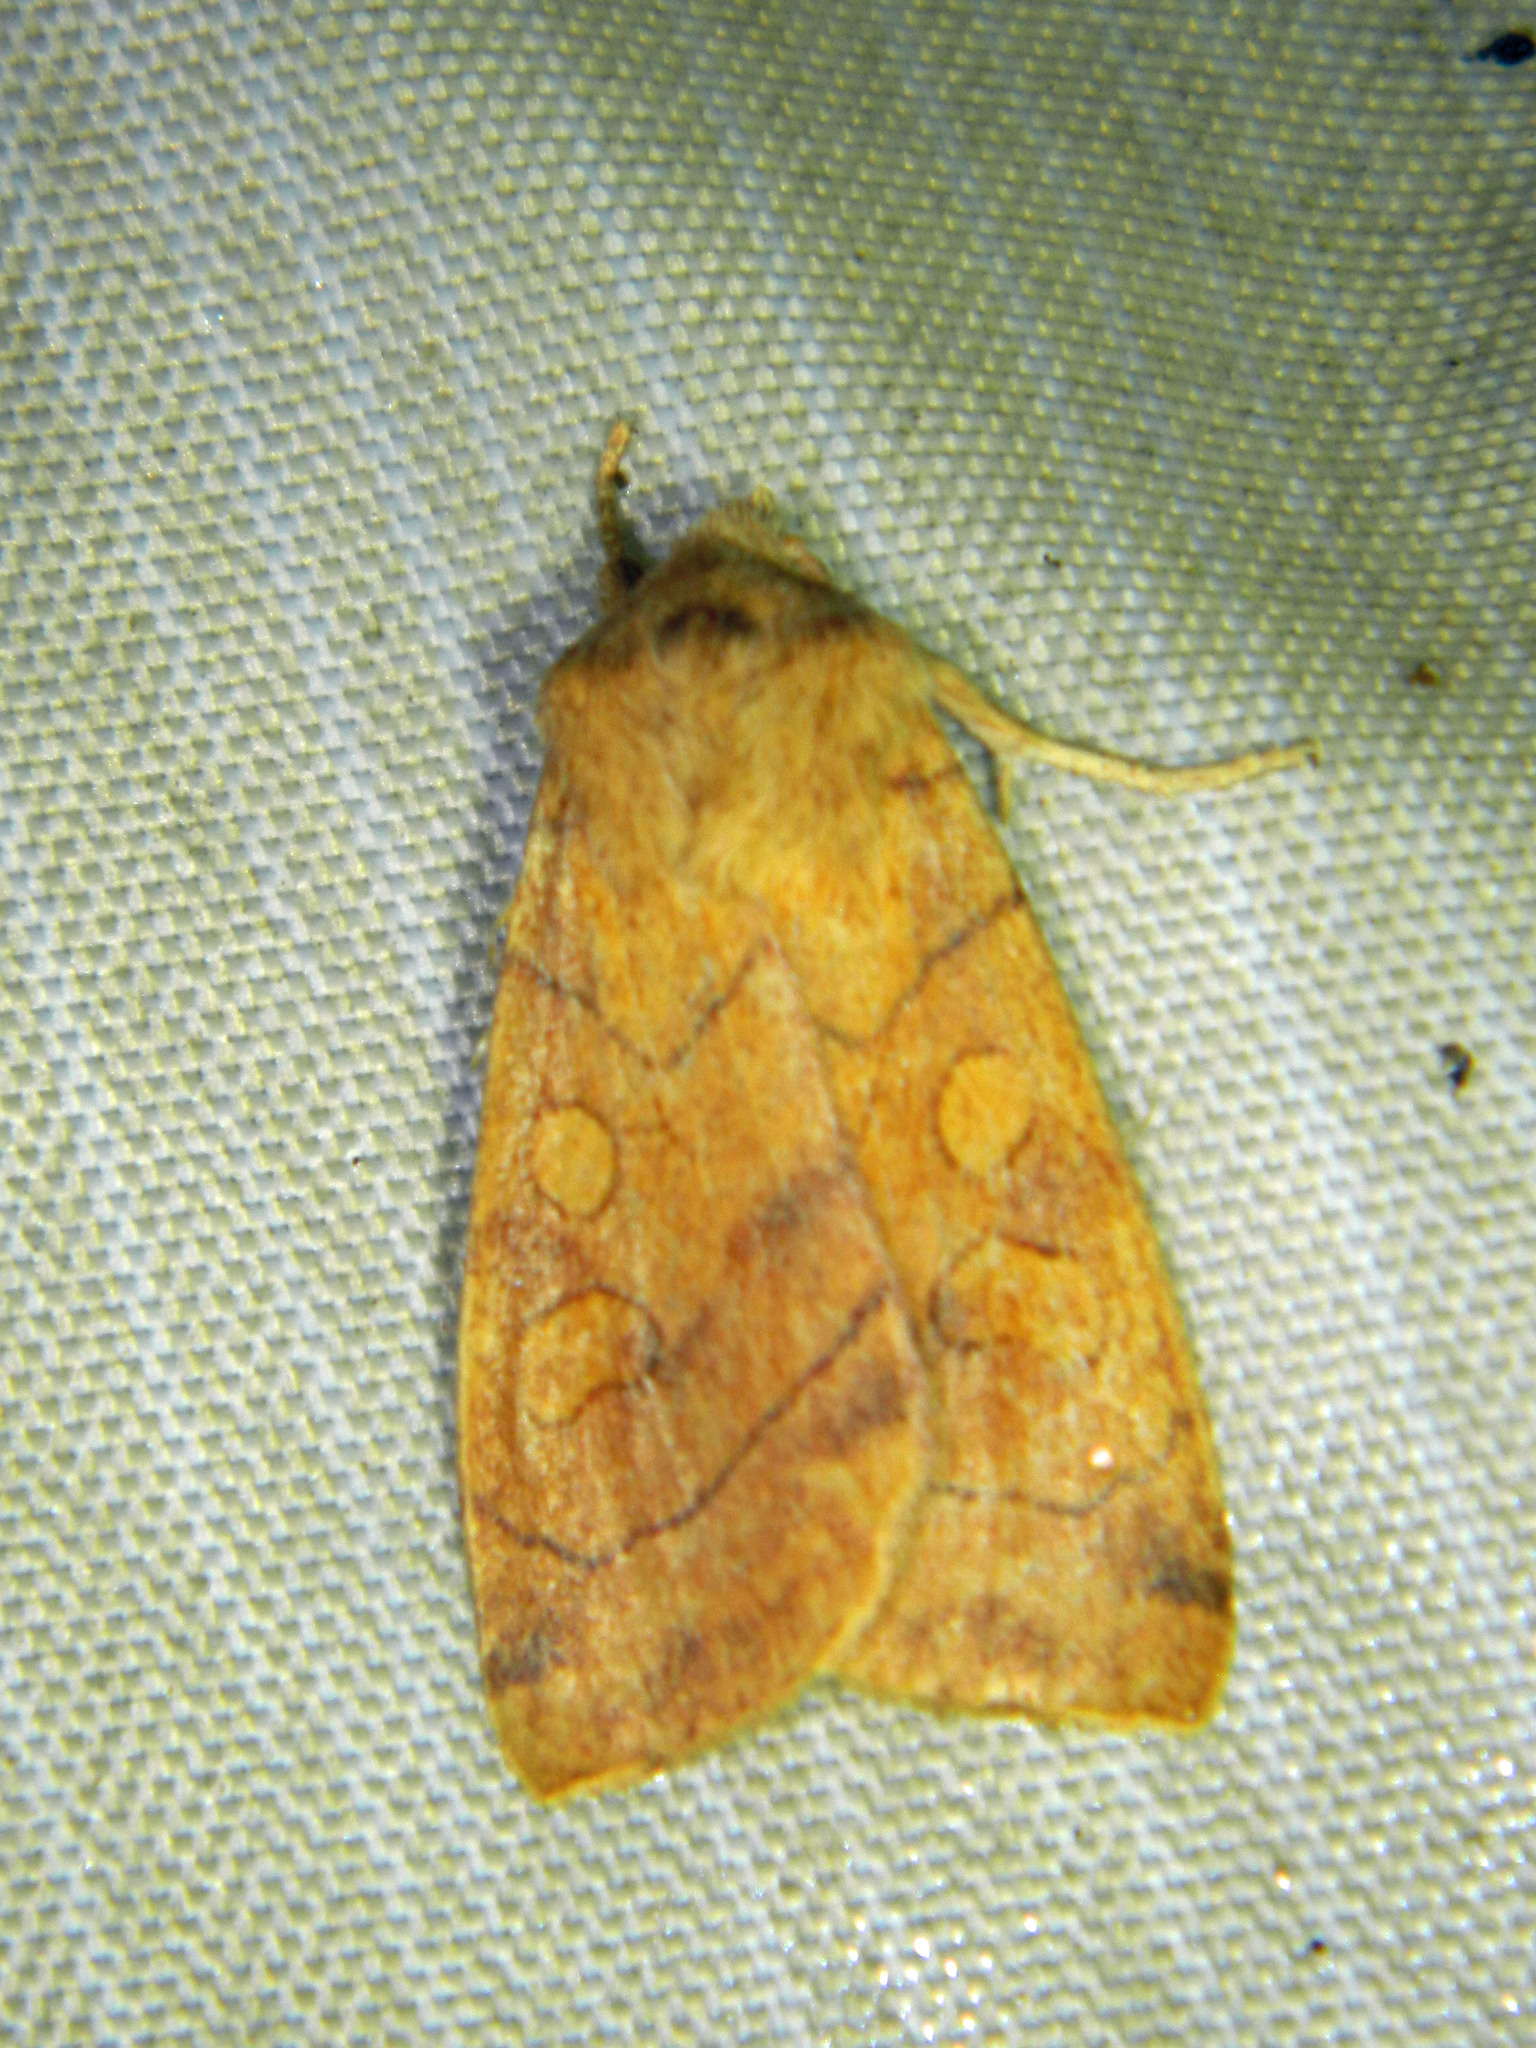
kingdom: Animalia
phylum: Arthropoda
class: Insecta
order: Lepidoptera
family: Noctuidae
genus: Enargia
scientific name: Enargia decolor
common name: Aspen twoleaf tier moth
